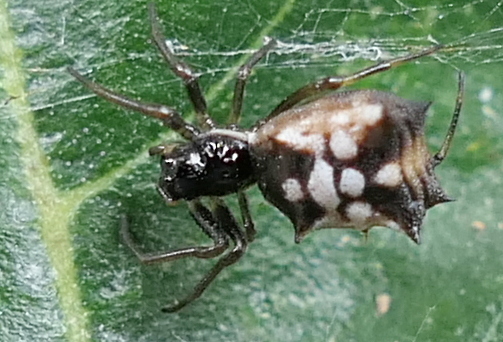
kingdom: Animalia
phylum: Arthropoda
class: Arachnida
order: Araneae
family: Araneidae
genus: Micrathena
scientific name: Micrathena picta
